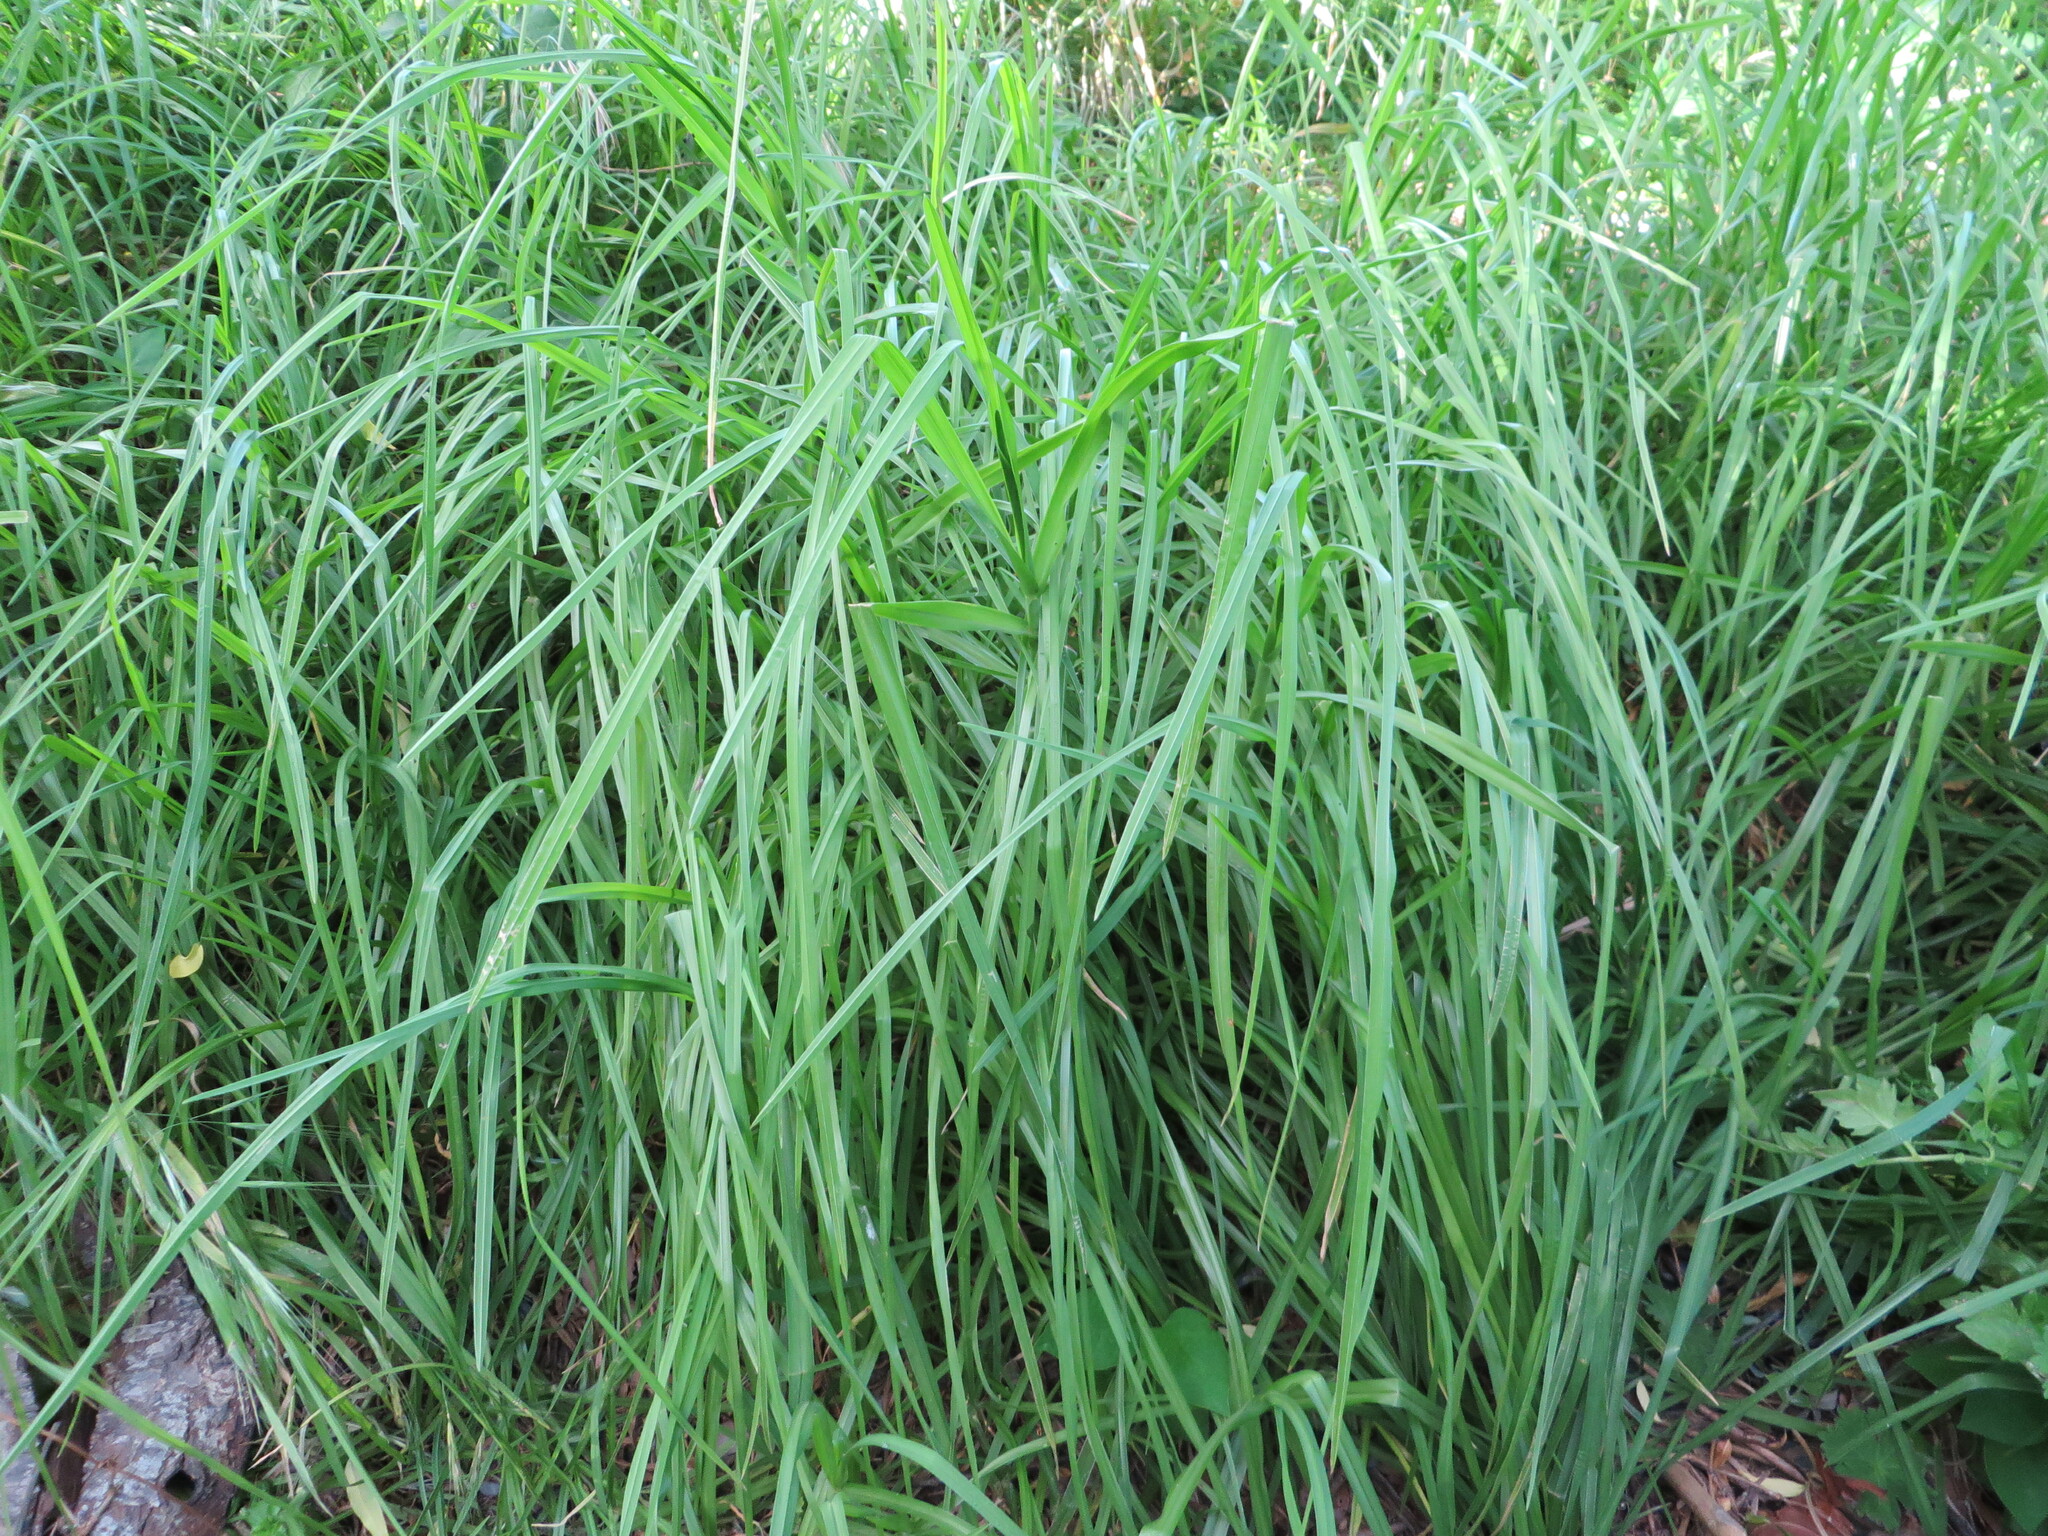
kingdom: Plantae
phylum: Tracheophyta
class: Liliopsida
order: Poales
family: Poaceae
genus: Cenchrus
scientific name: Cenchrus clandestinus
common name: Kikuyugrass
